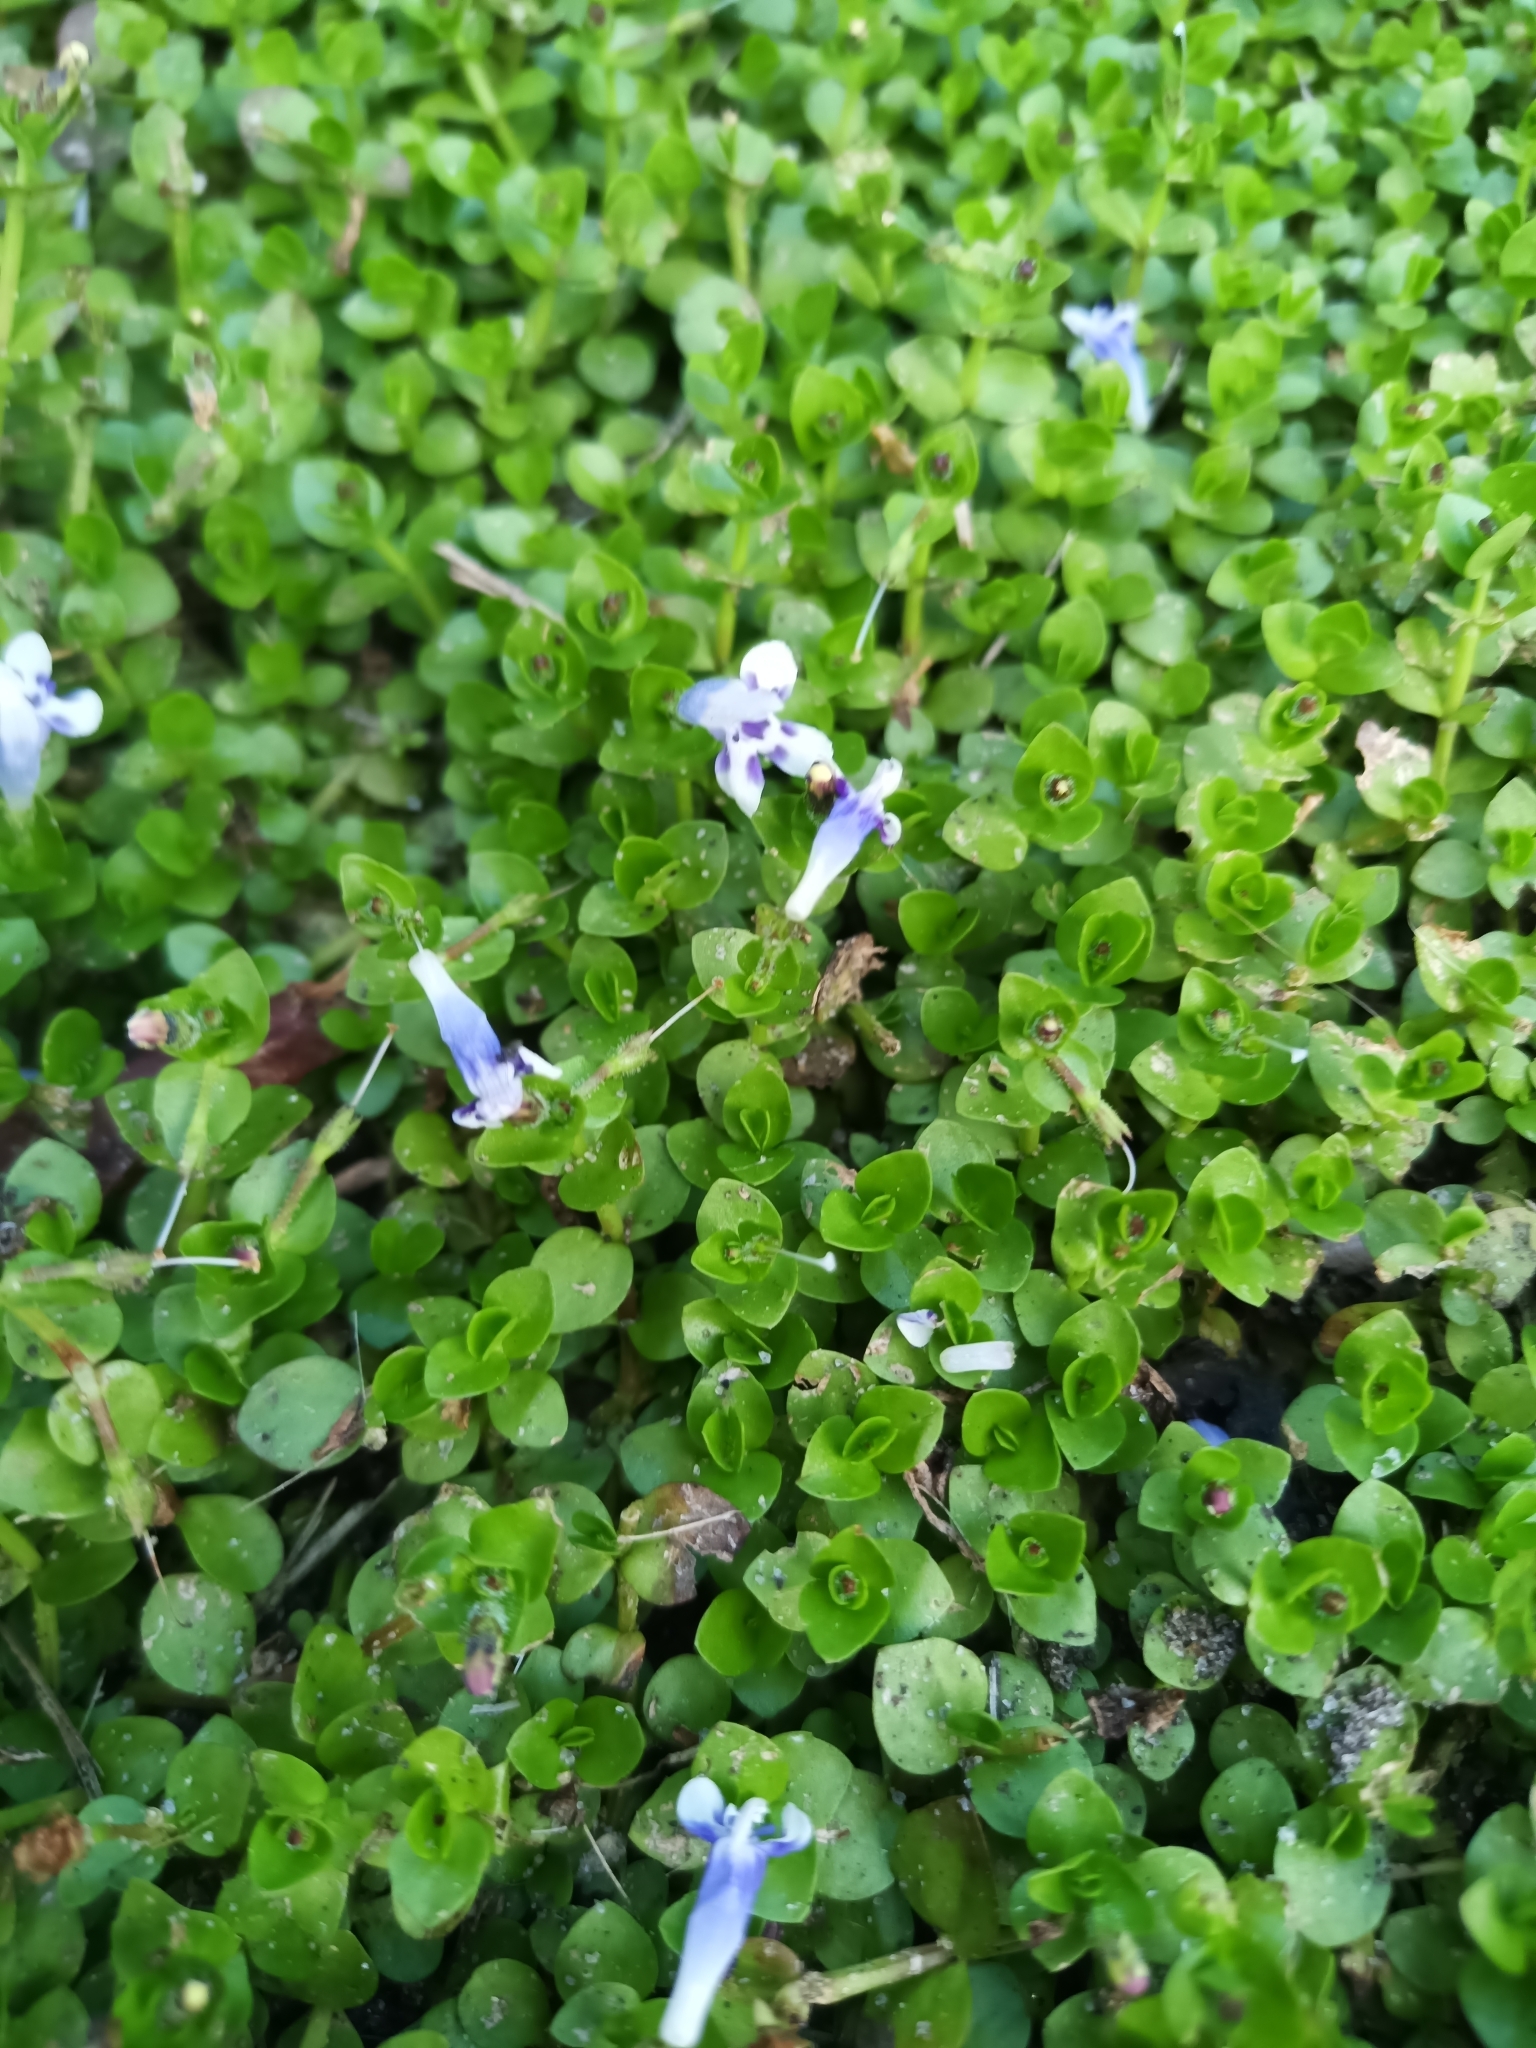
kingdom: Plantae
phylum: Tracheophyta
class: Magnoliopsida
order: Lamiales
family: Linderniaceae
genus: Lindernia
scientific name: Lindernia rotundifolia
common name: Baby’s tears
